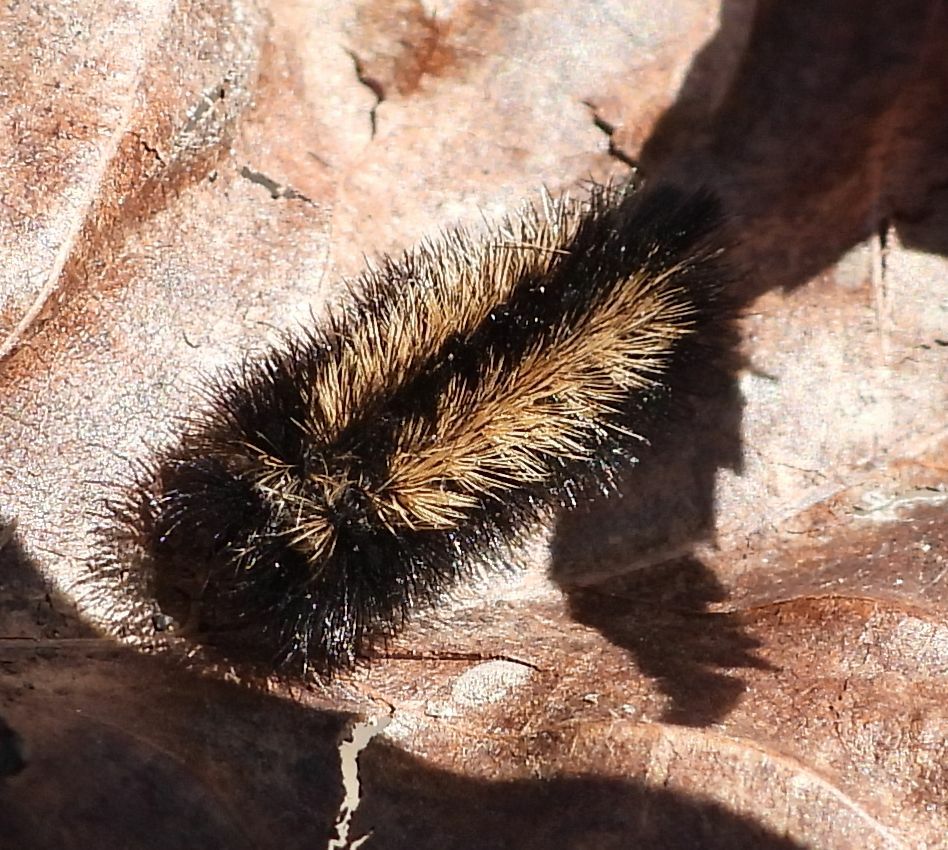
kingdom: Animalia
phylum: Arthropoda
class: Insecta
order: Lepidoptera
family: Erebidae
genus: Ctenucha
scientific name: Ctenucha virginica
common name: Virginia ctenucha moth
